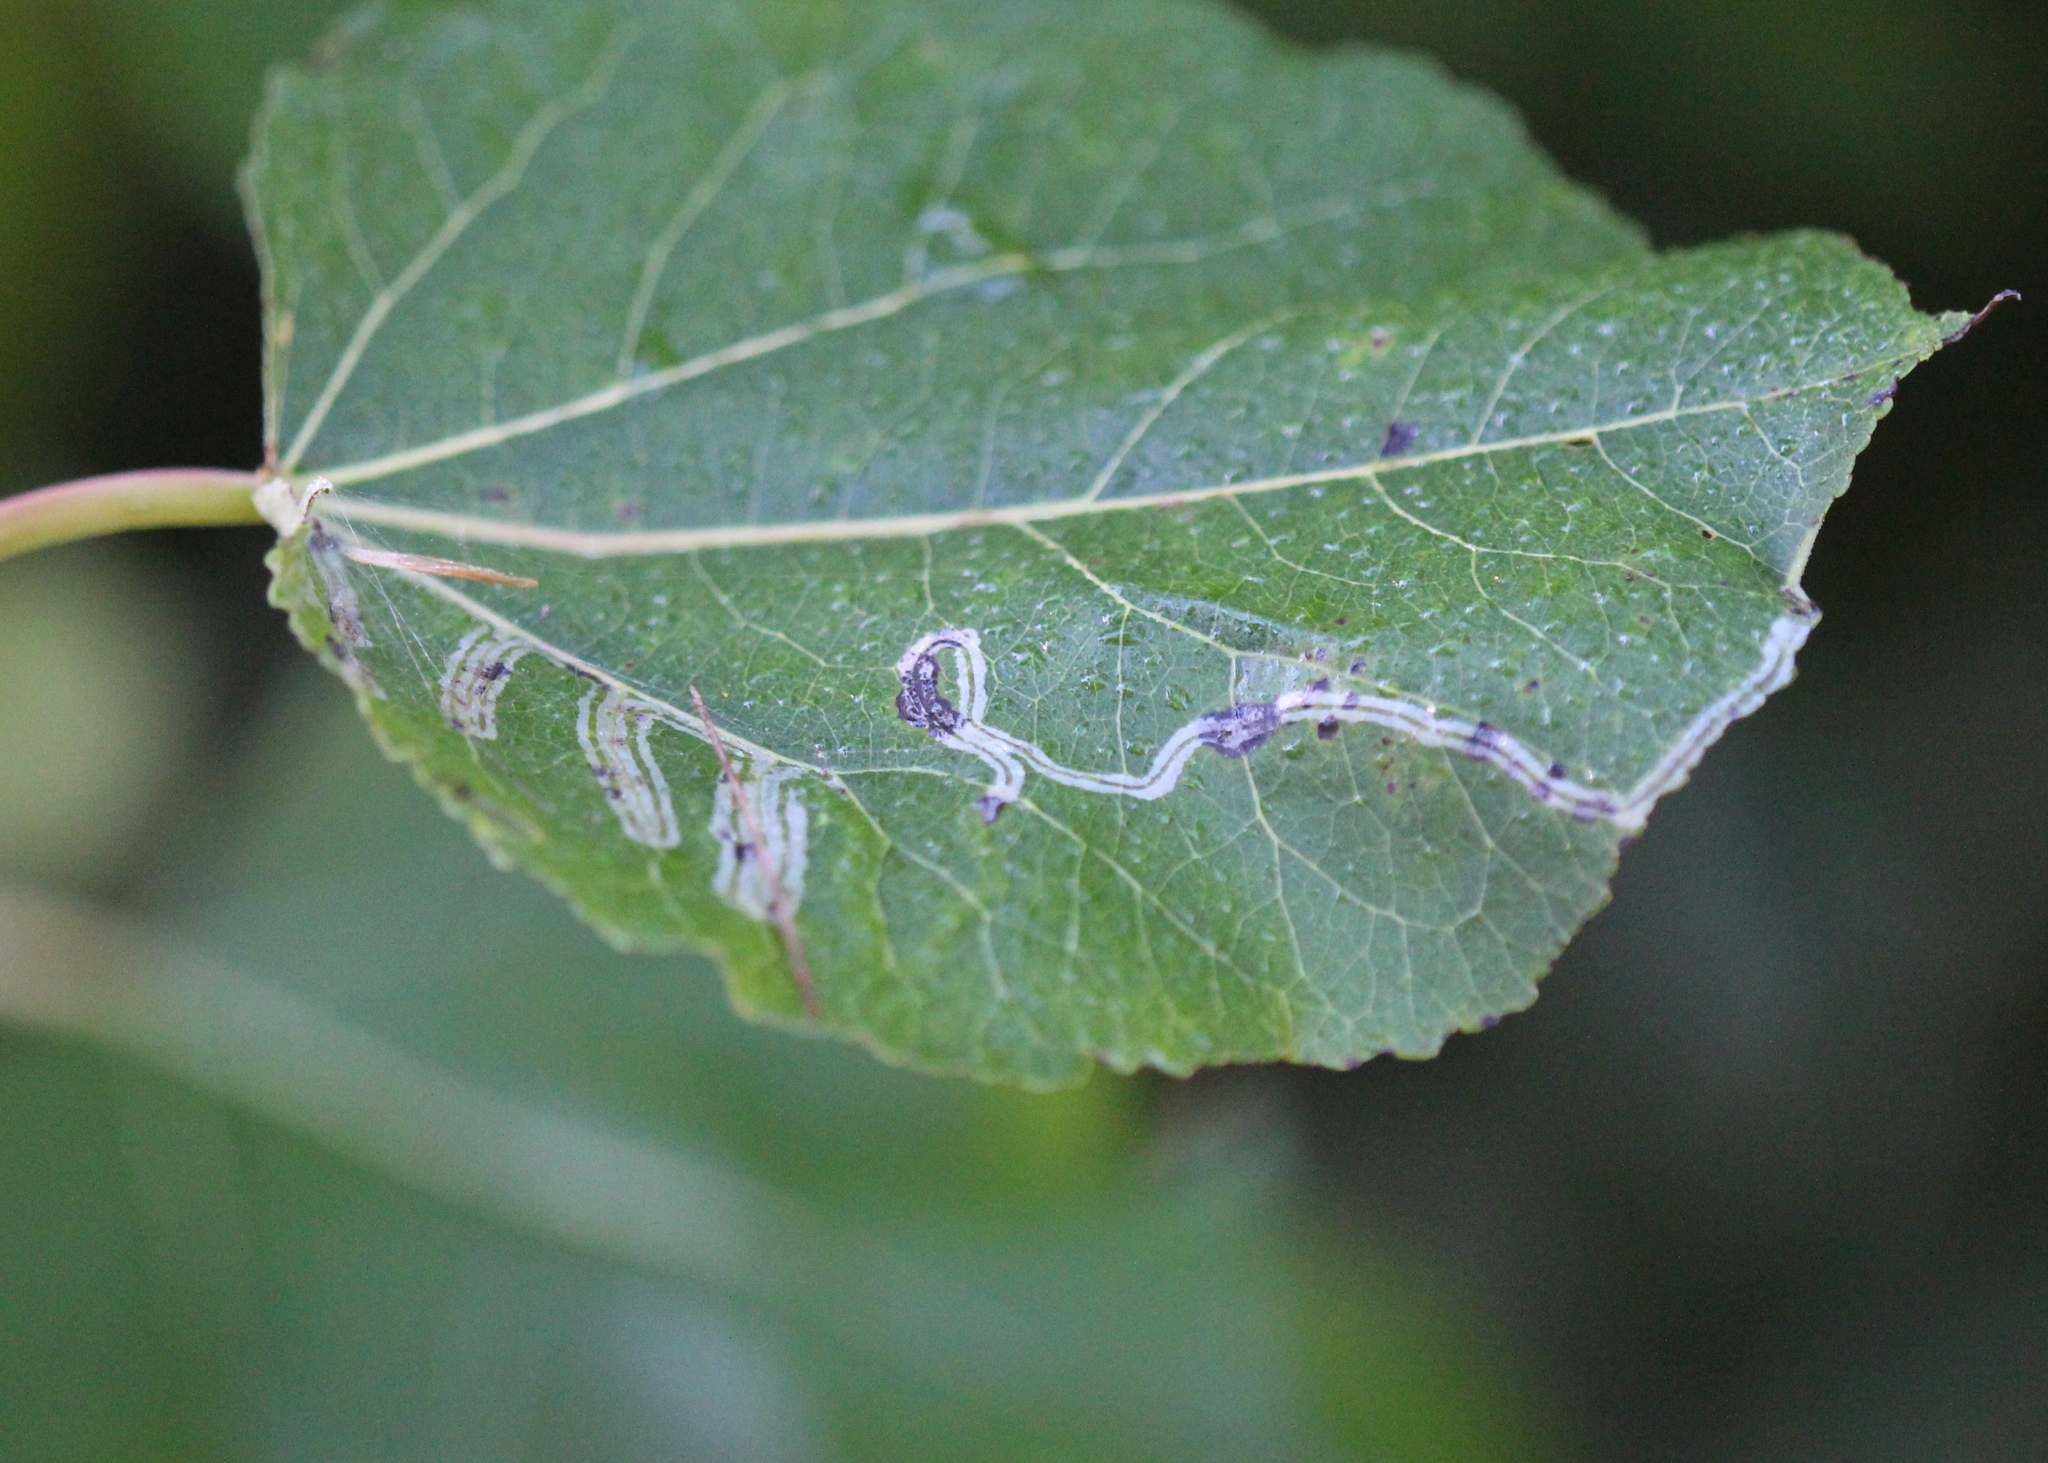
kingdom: Animalia
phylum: Arthropoda
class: Insecta
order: Lepidoptera
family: Gracillariidae
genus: Phyllocnistis
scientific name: Phyllocnistis populiella
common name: Aspen serpentine leafminer moth
